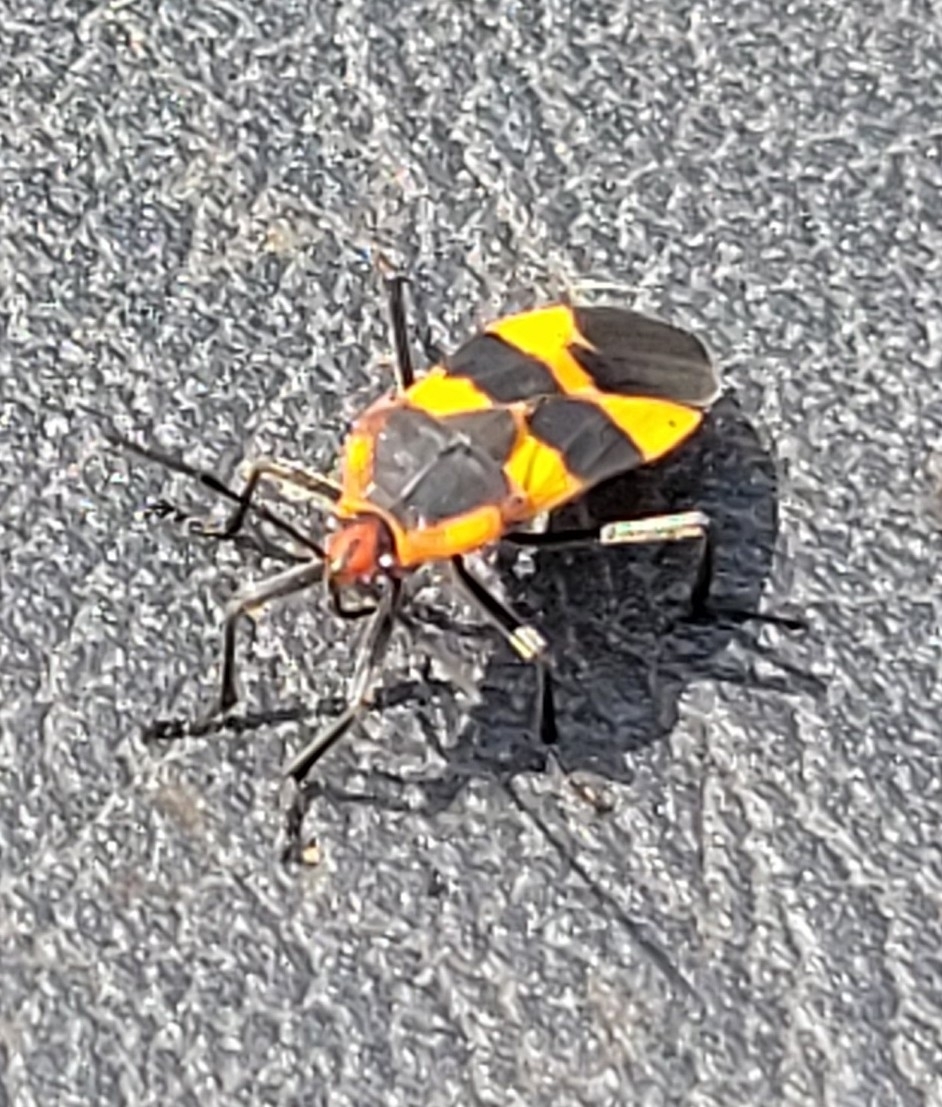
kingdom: Animalia
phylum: Arthropoda
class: Insecta
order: Hemiptera
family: Lygaeidae
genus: Oncopeltus
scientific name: Oncopeltus fasciatus
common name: Large milkweed bug
